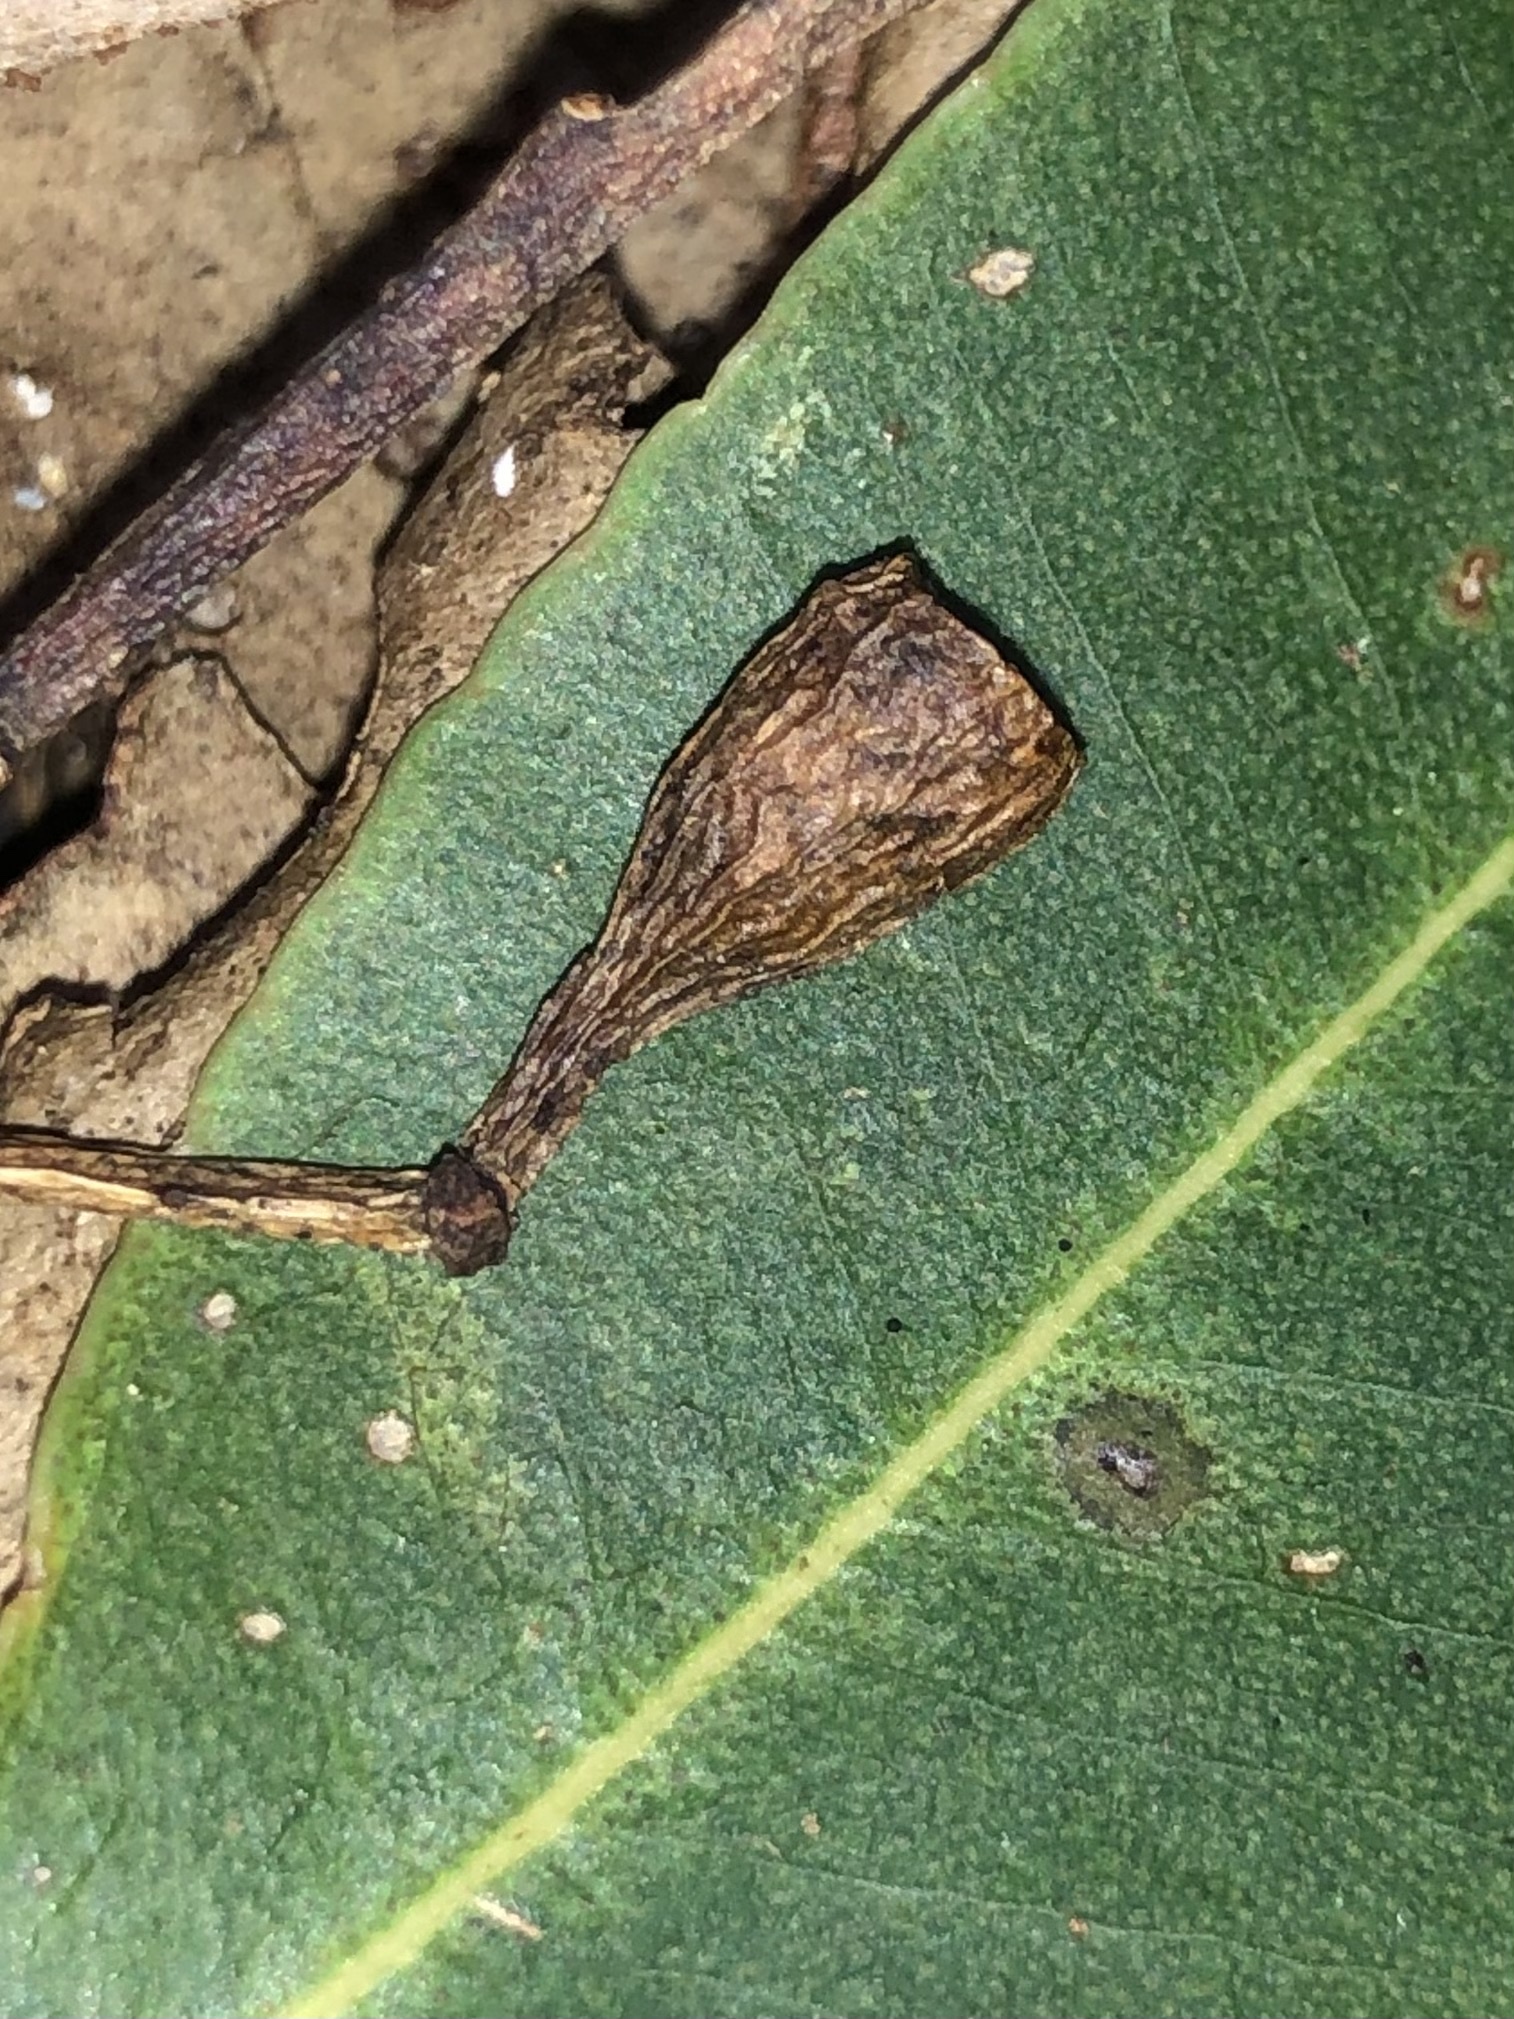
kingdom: Plantae
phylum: Tracheophyta
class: Magnoliopsida
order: Myrtales
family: Myrtaceae
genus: Eucalyptus
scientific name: Eucalyptus microcorys
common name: Tallowwood
